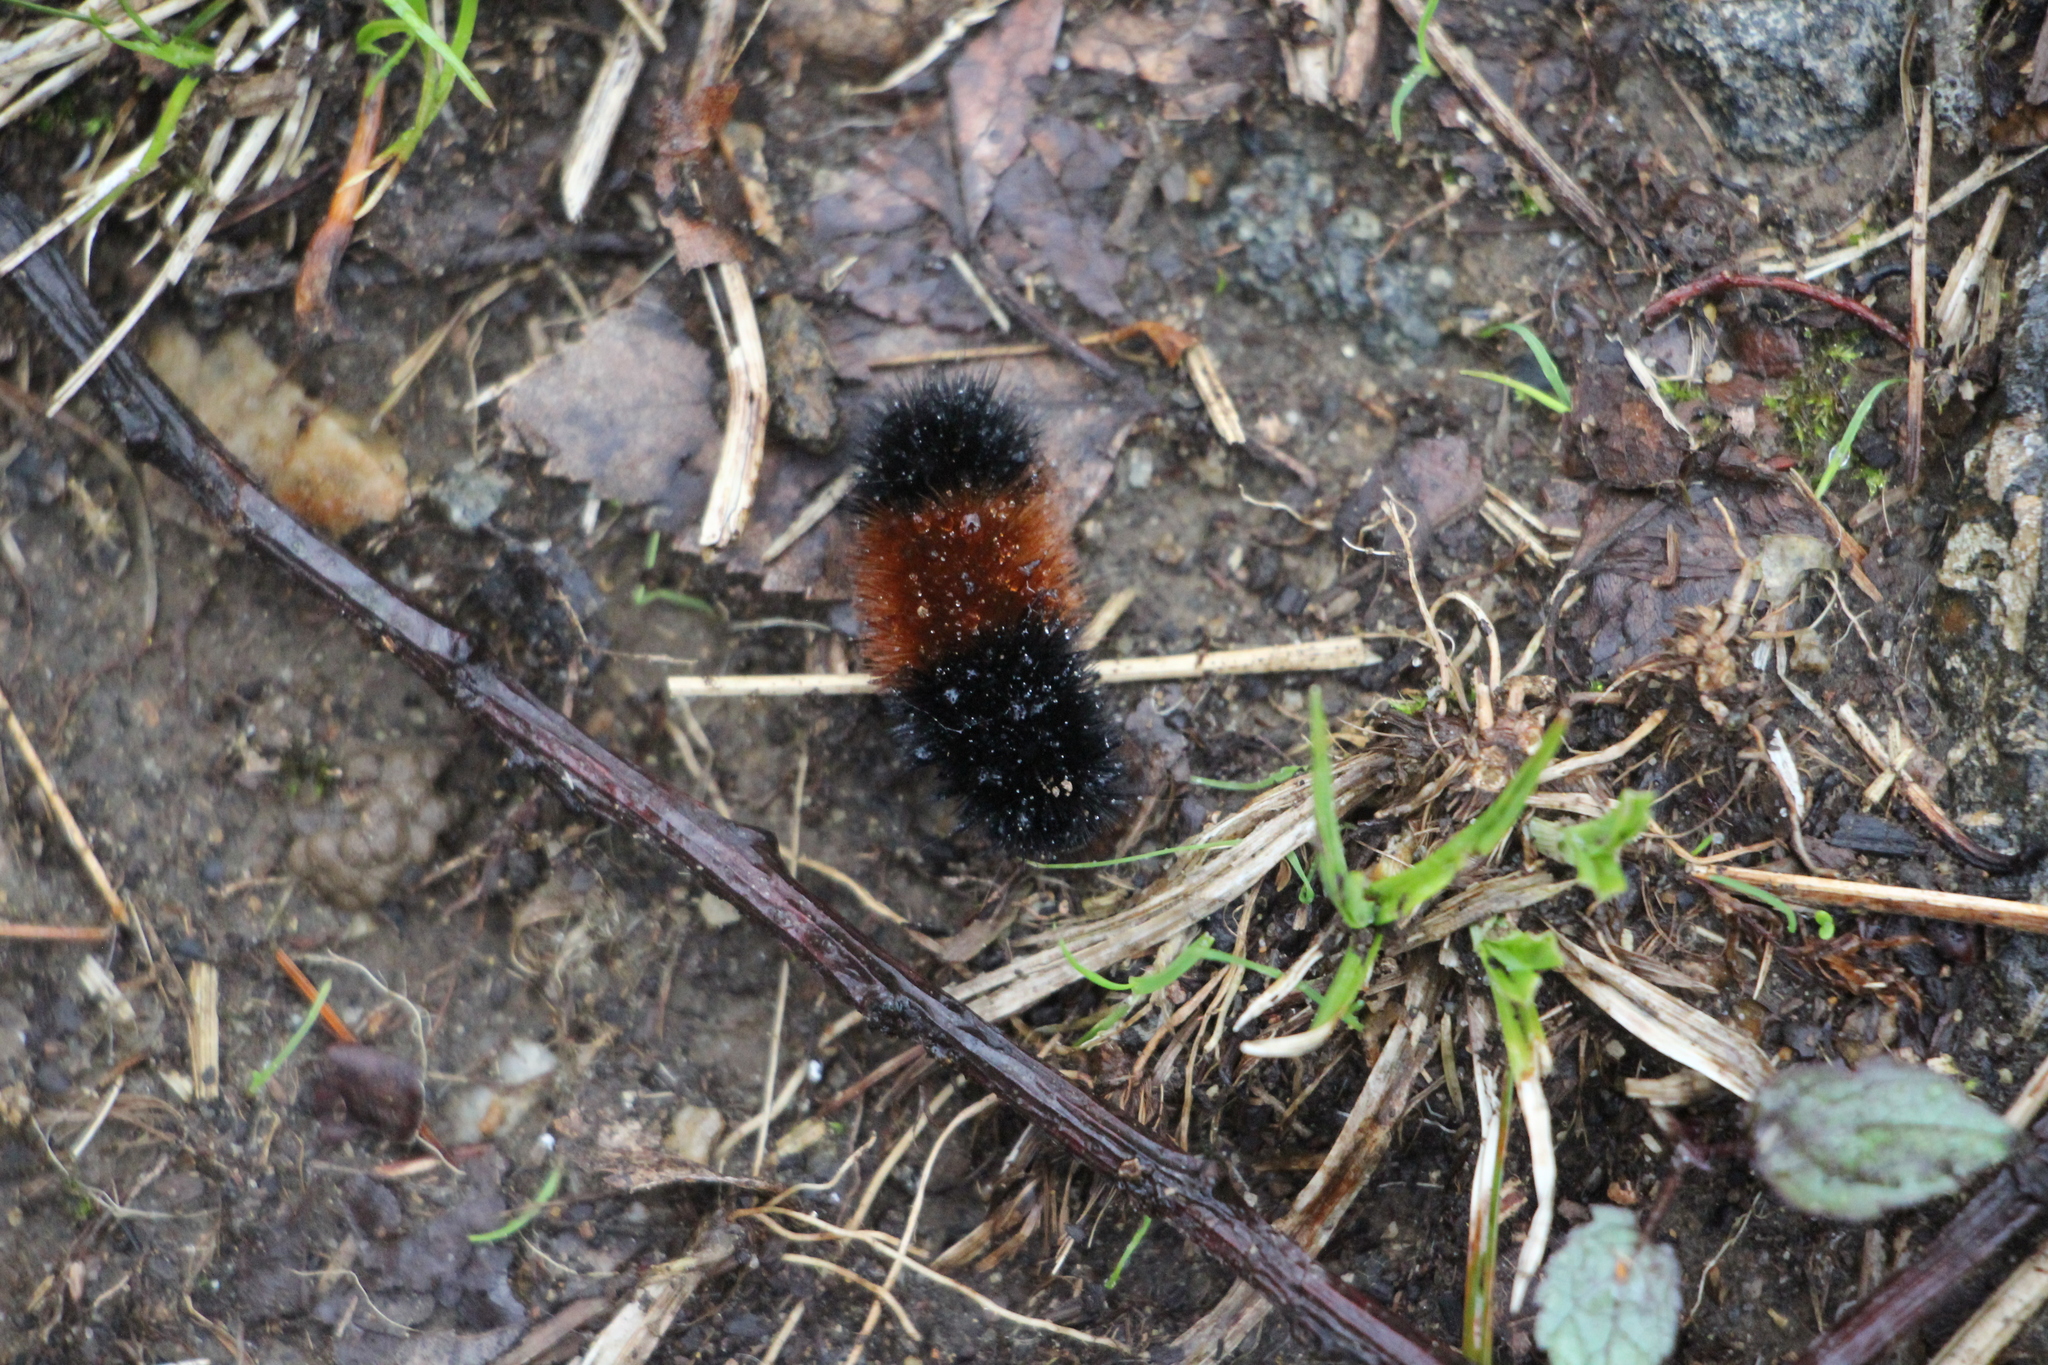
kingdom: Animalia
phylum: Arthropoda
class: Insecta
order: Lepidoptera
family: Erebidae
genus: Pyrrharctia
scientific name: Pyrrharctia isabella
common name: Isabella tiger moth
